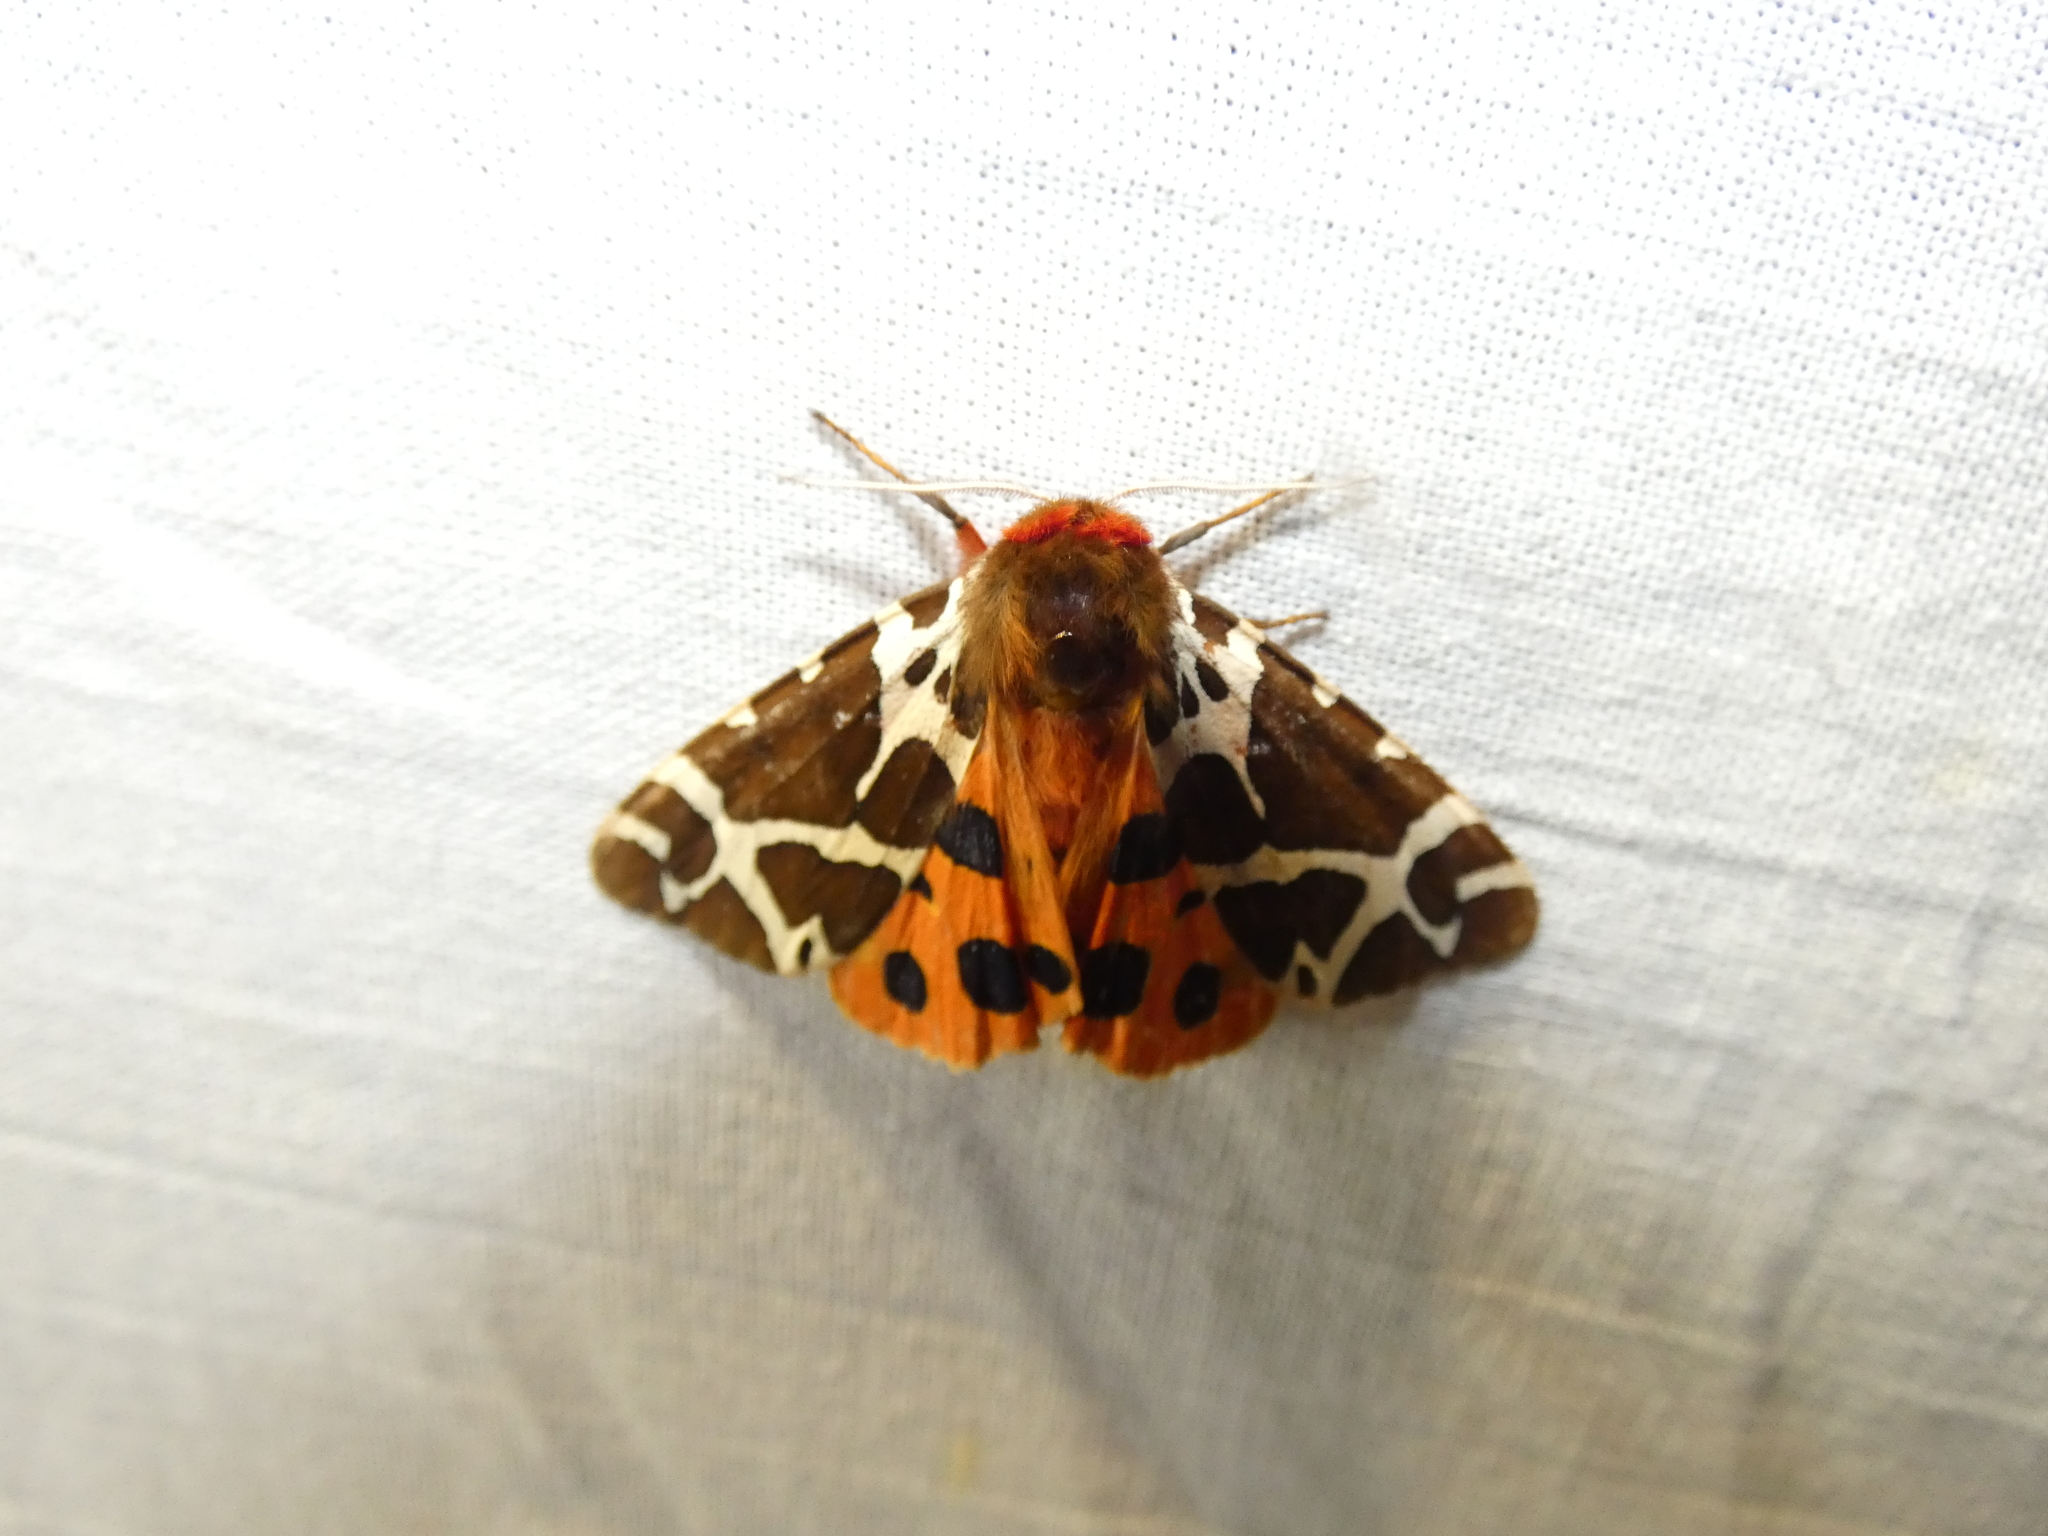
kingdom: Animalia
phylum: Arthropoda
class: Insecta
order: Lepidoptera
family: Erebidae
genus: Arctia
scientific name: Arctia caja
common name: Garden tiger
